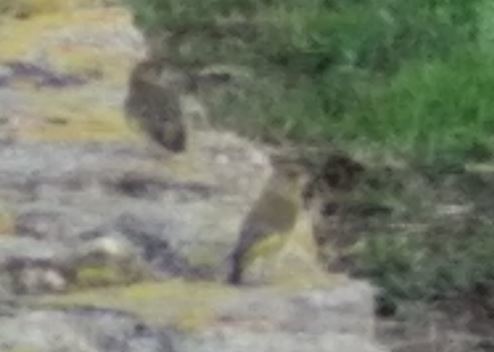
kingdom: Plantae
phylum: Tracheophyta
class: Liliopsida
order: Poales
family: Poaceae
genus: Chloris
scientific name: Chloris chloris
